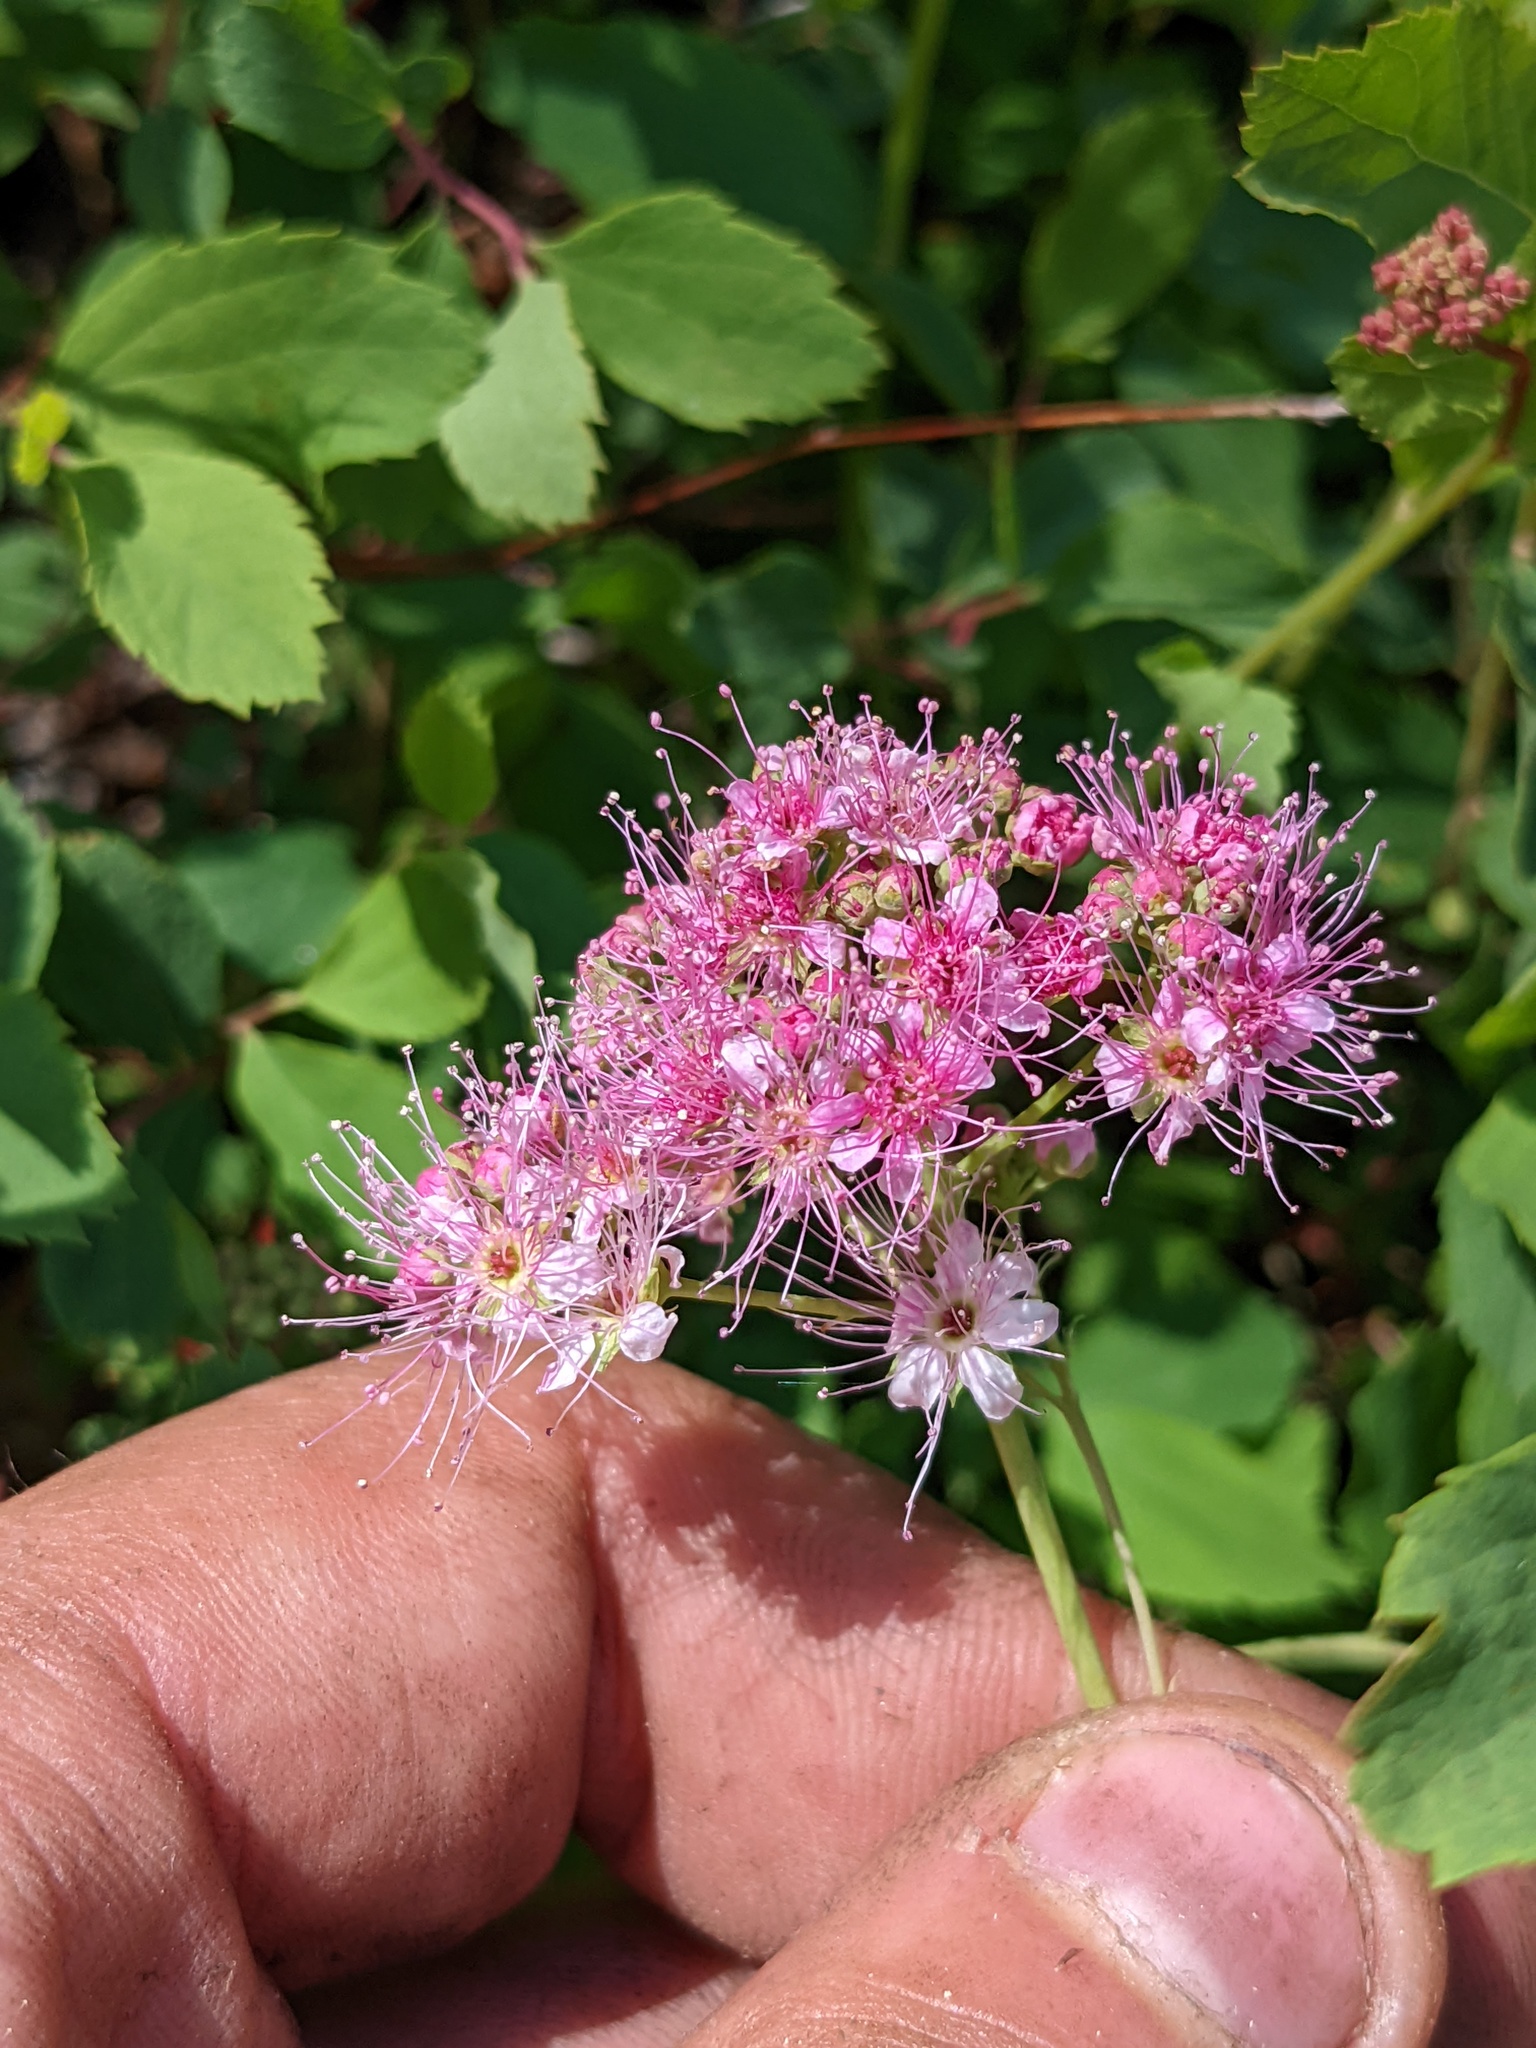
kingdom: Plantae
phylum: Tracheophyta
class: Magnoliopsida
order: Rosales
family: Rosaceae
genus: Spiraea
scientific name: Spiraea splendens
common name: Subalpine meadowsweet
